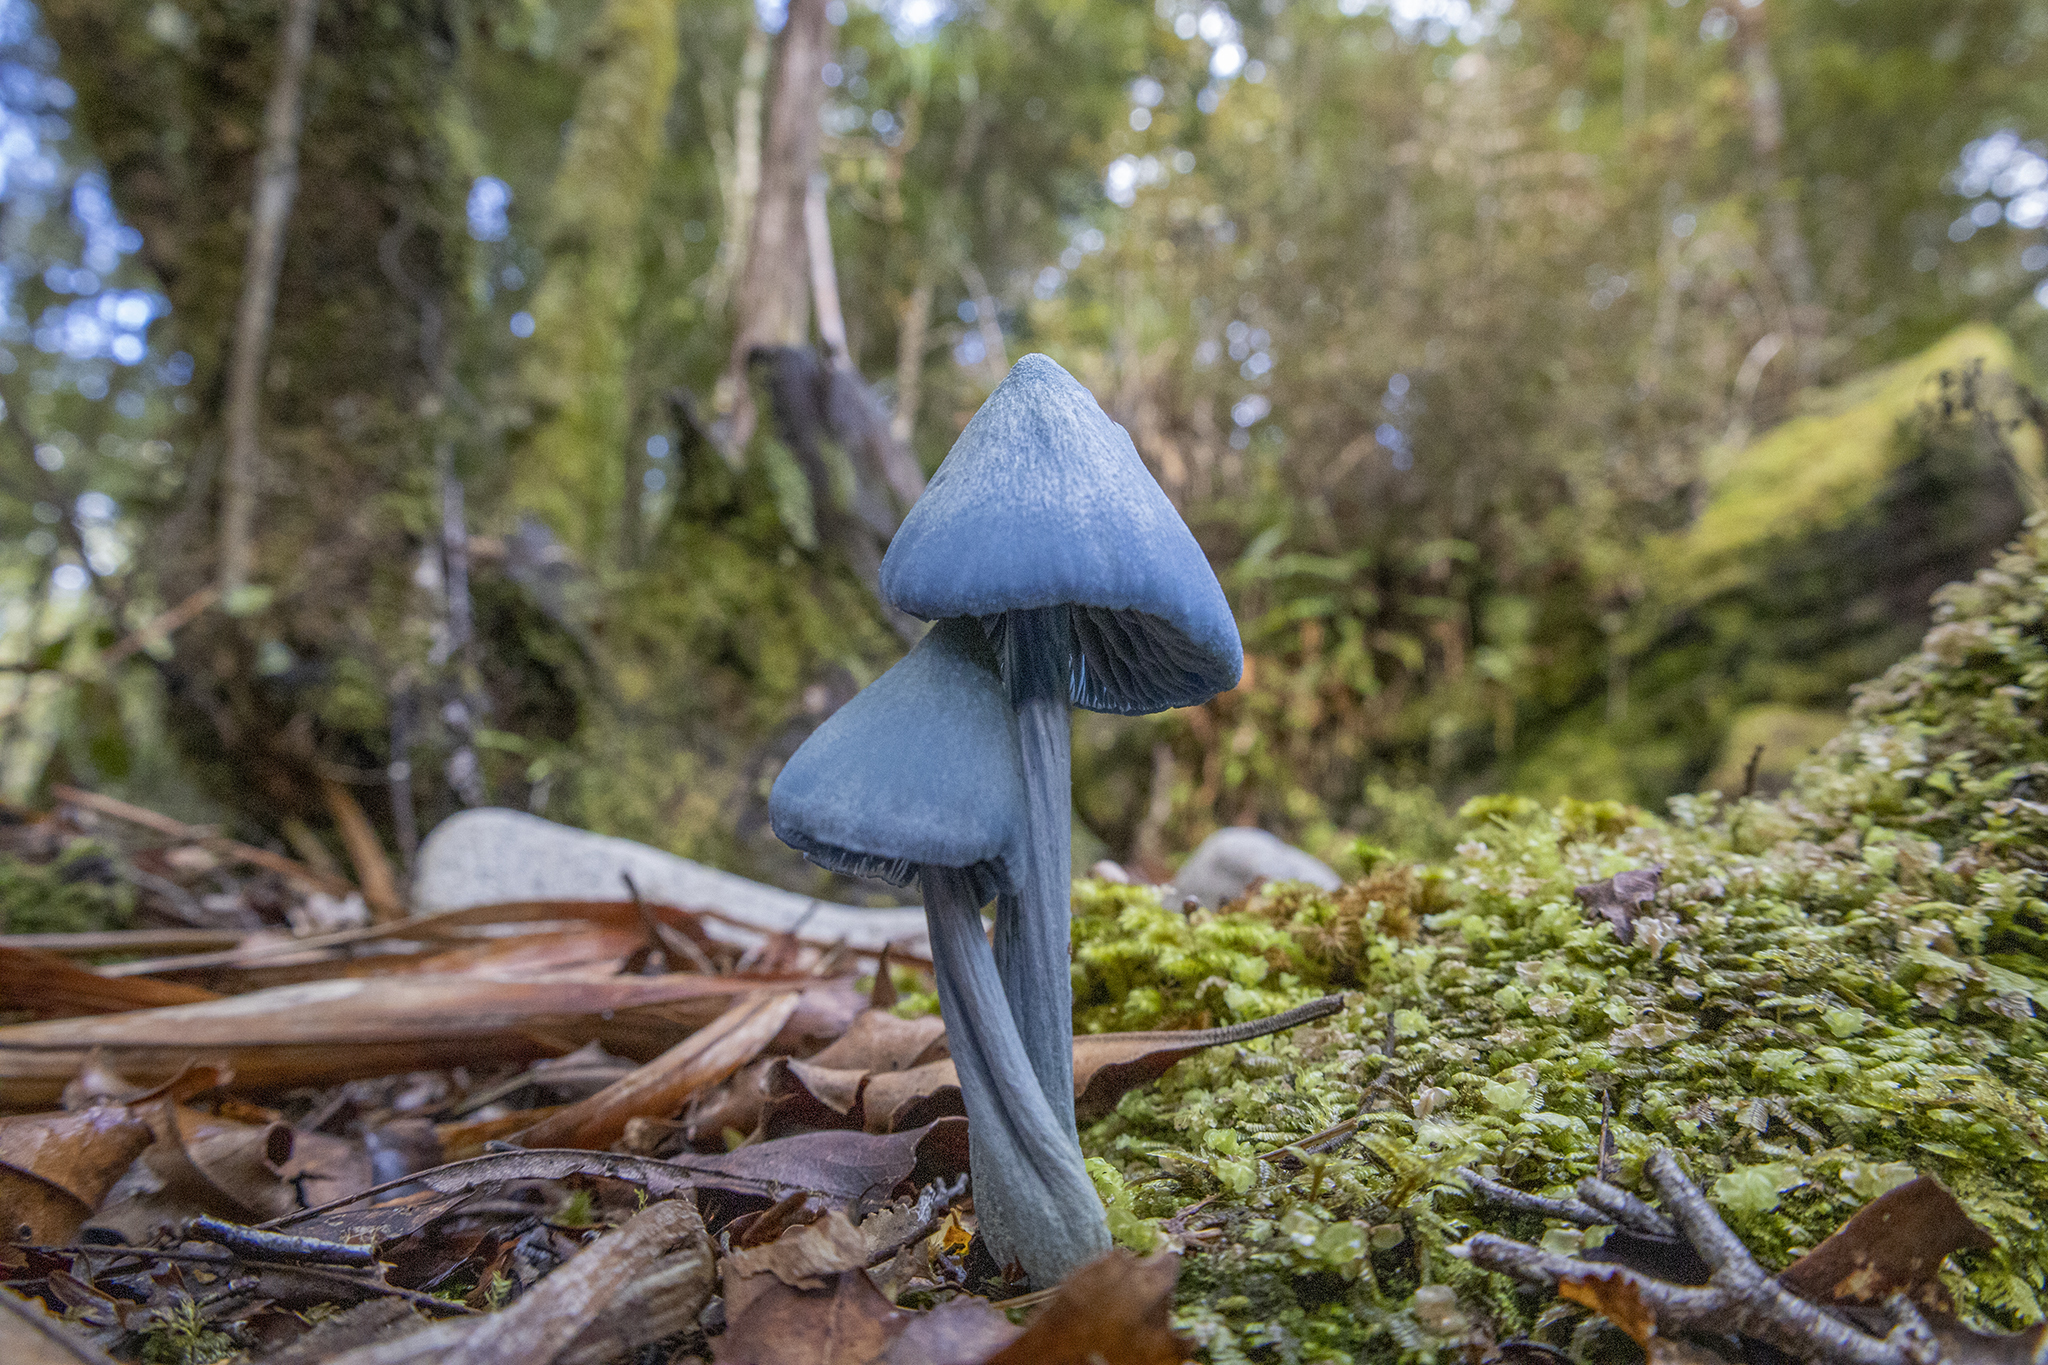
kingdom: Fungi
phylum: Basidiomycota
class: Agaricomycetes
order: Agaricales
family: Entolomataceae
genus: Entoloma
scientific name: Entoloma hochstetteri
